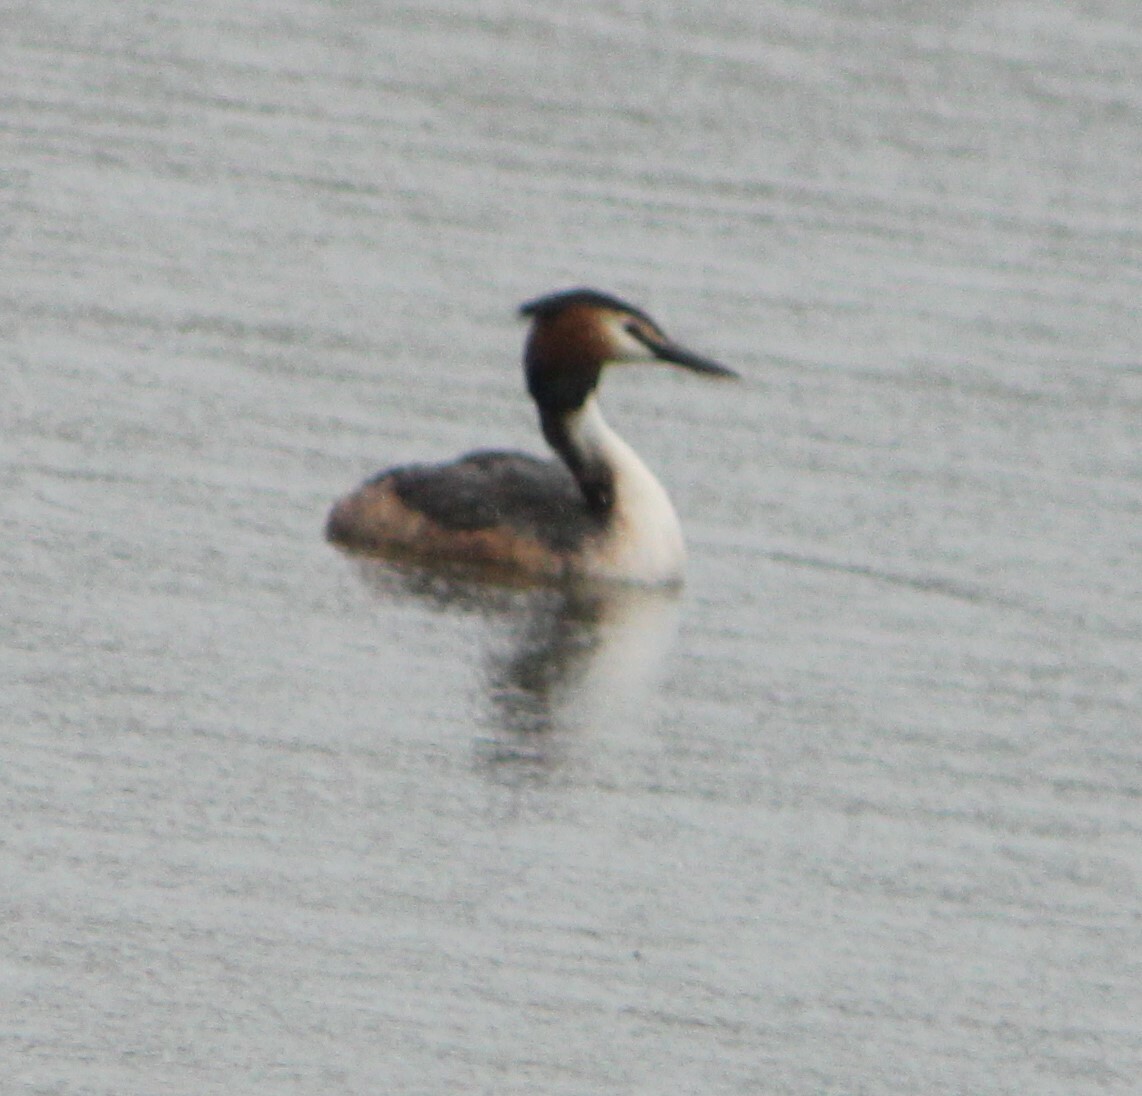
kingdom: Animalia
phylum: Chordata
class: Aves
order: Podicipediformes
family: Podicipedidae
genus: Podiceps
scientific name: Podiceps cristatus
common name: Great crested grebe
